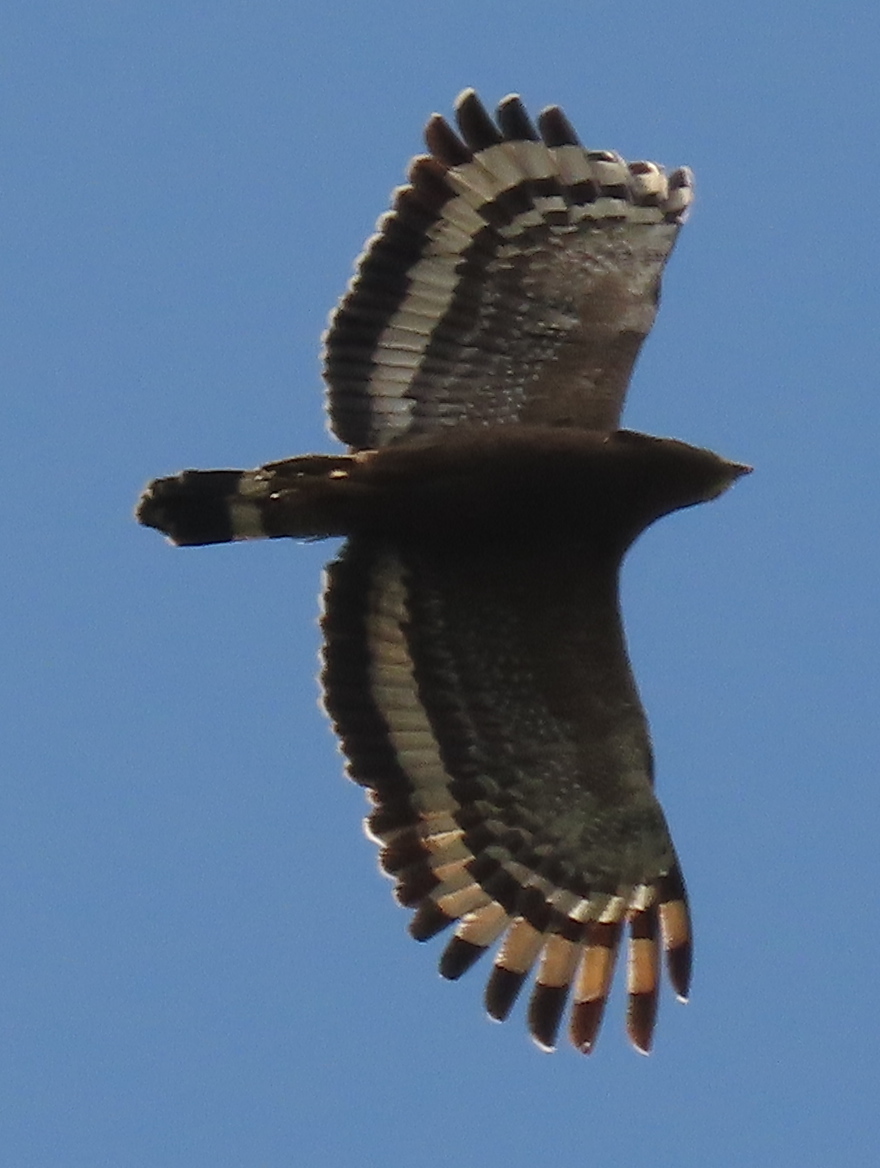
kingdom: Animalia
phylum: Chordata
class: Aves
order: Accipitriformes
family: Accipitridae
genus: Spilornis
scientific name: Spilornis cheela
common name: Crested serpent eagle
